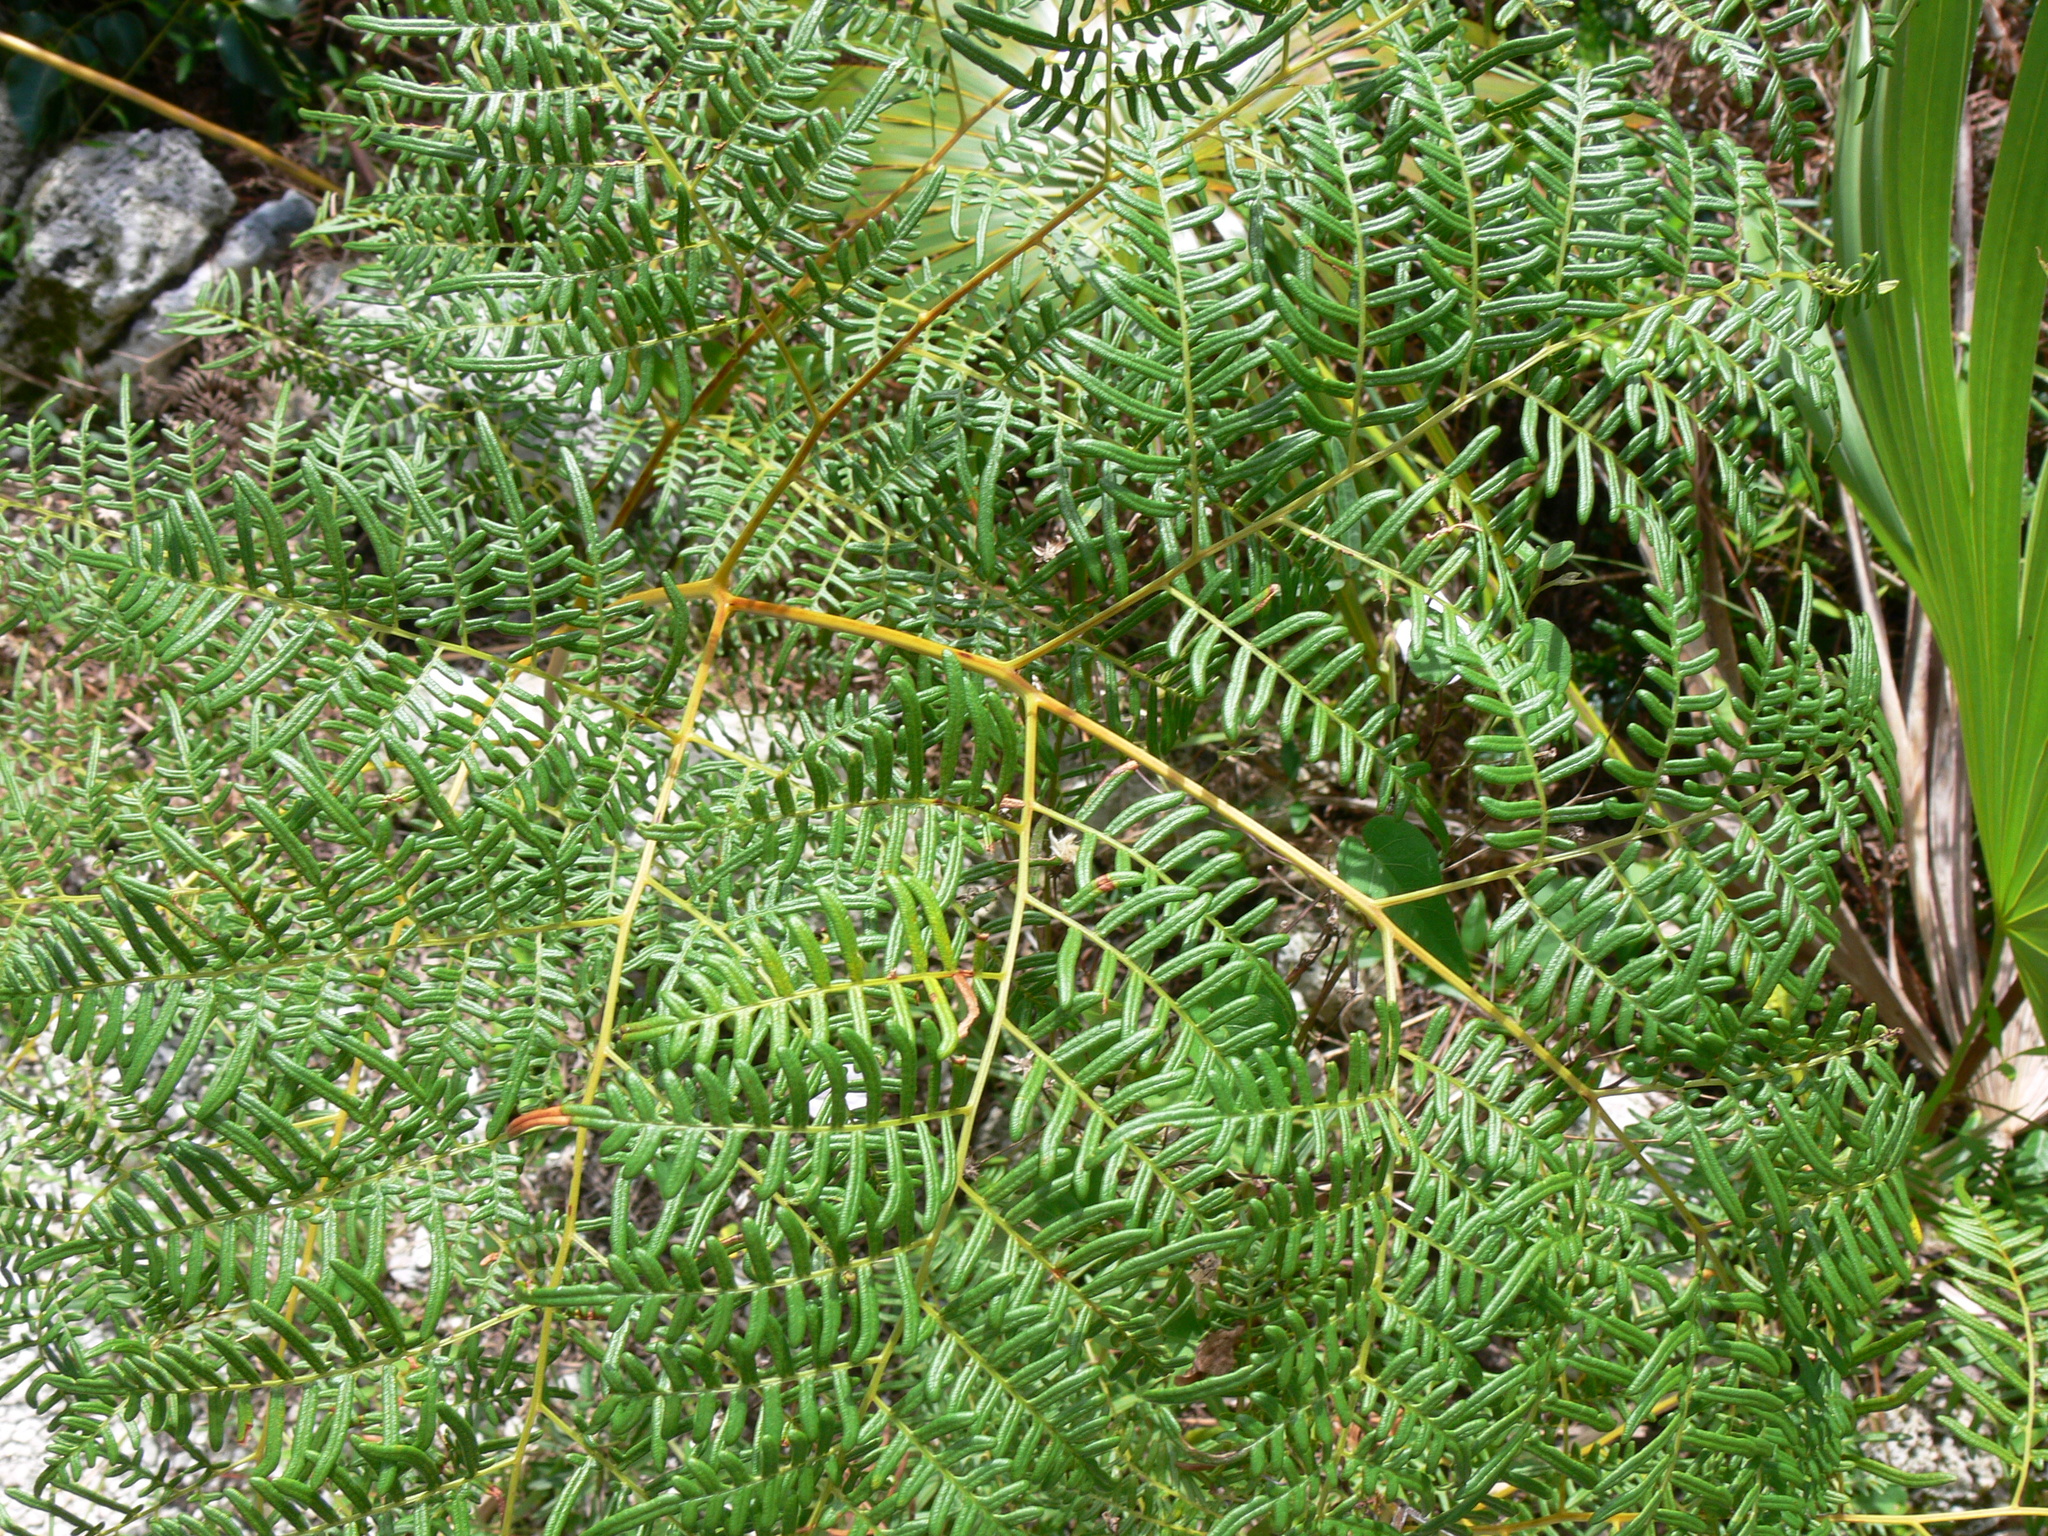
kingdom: Plantae
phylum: Tracheophyta
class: Polypodiopsida
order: Polypodiales
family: Dennstaedtiaceae
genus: Pteridium
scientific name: Pteridium caudatum
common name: Southern bracken fern
